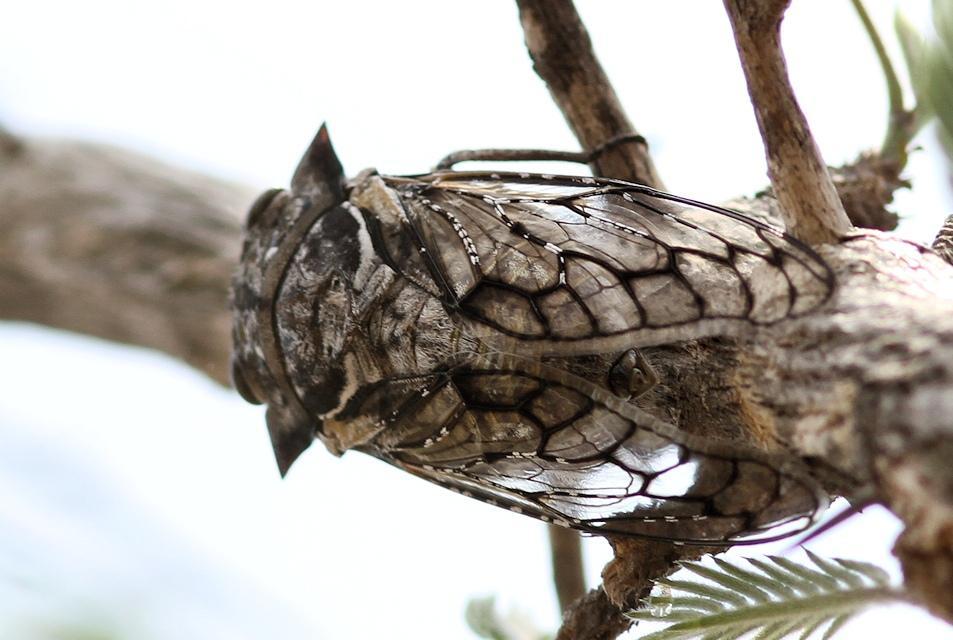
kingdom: Animalia
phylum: Arthropoda
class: Insecta
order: Hemiptera
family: Cicadidae
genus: Oxypleura
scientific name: Oxypleura quadraticollis
